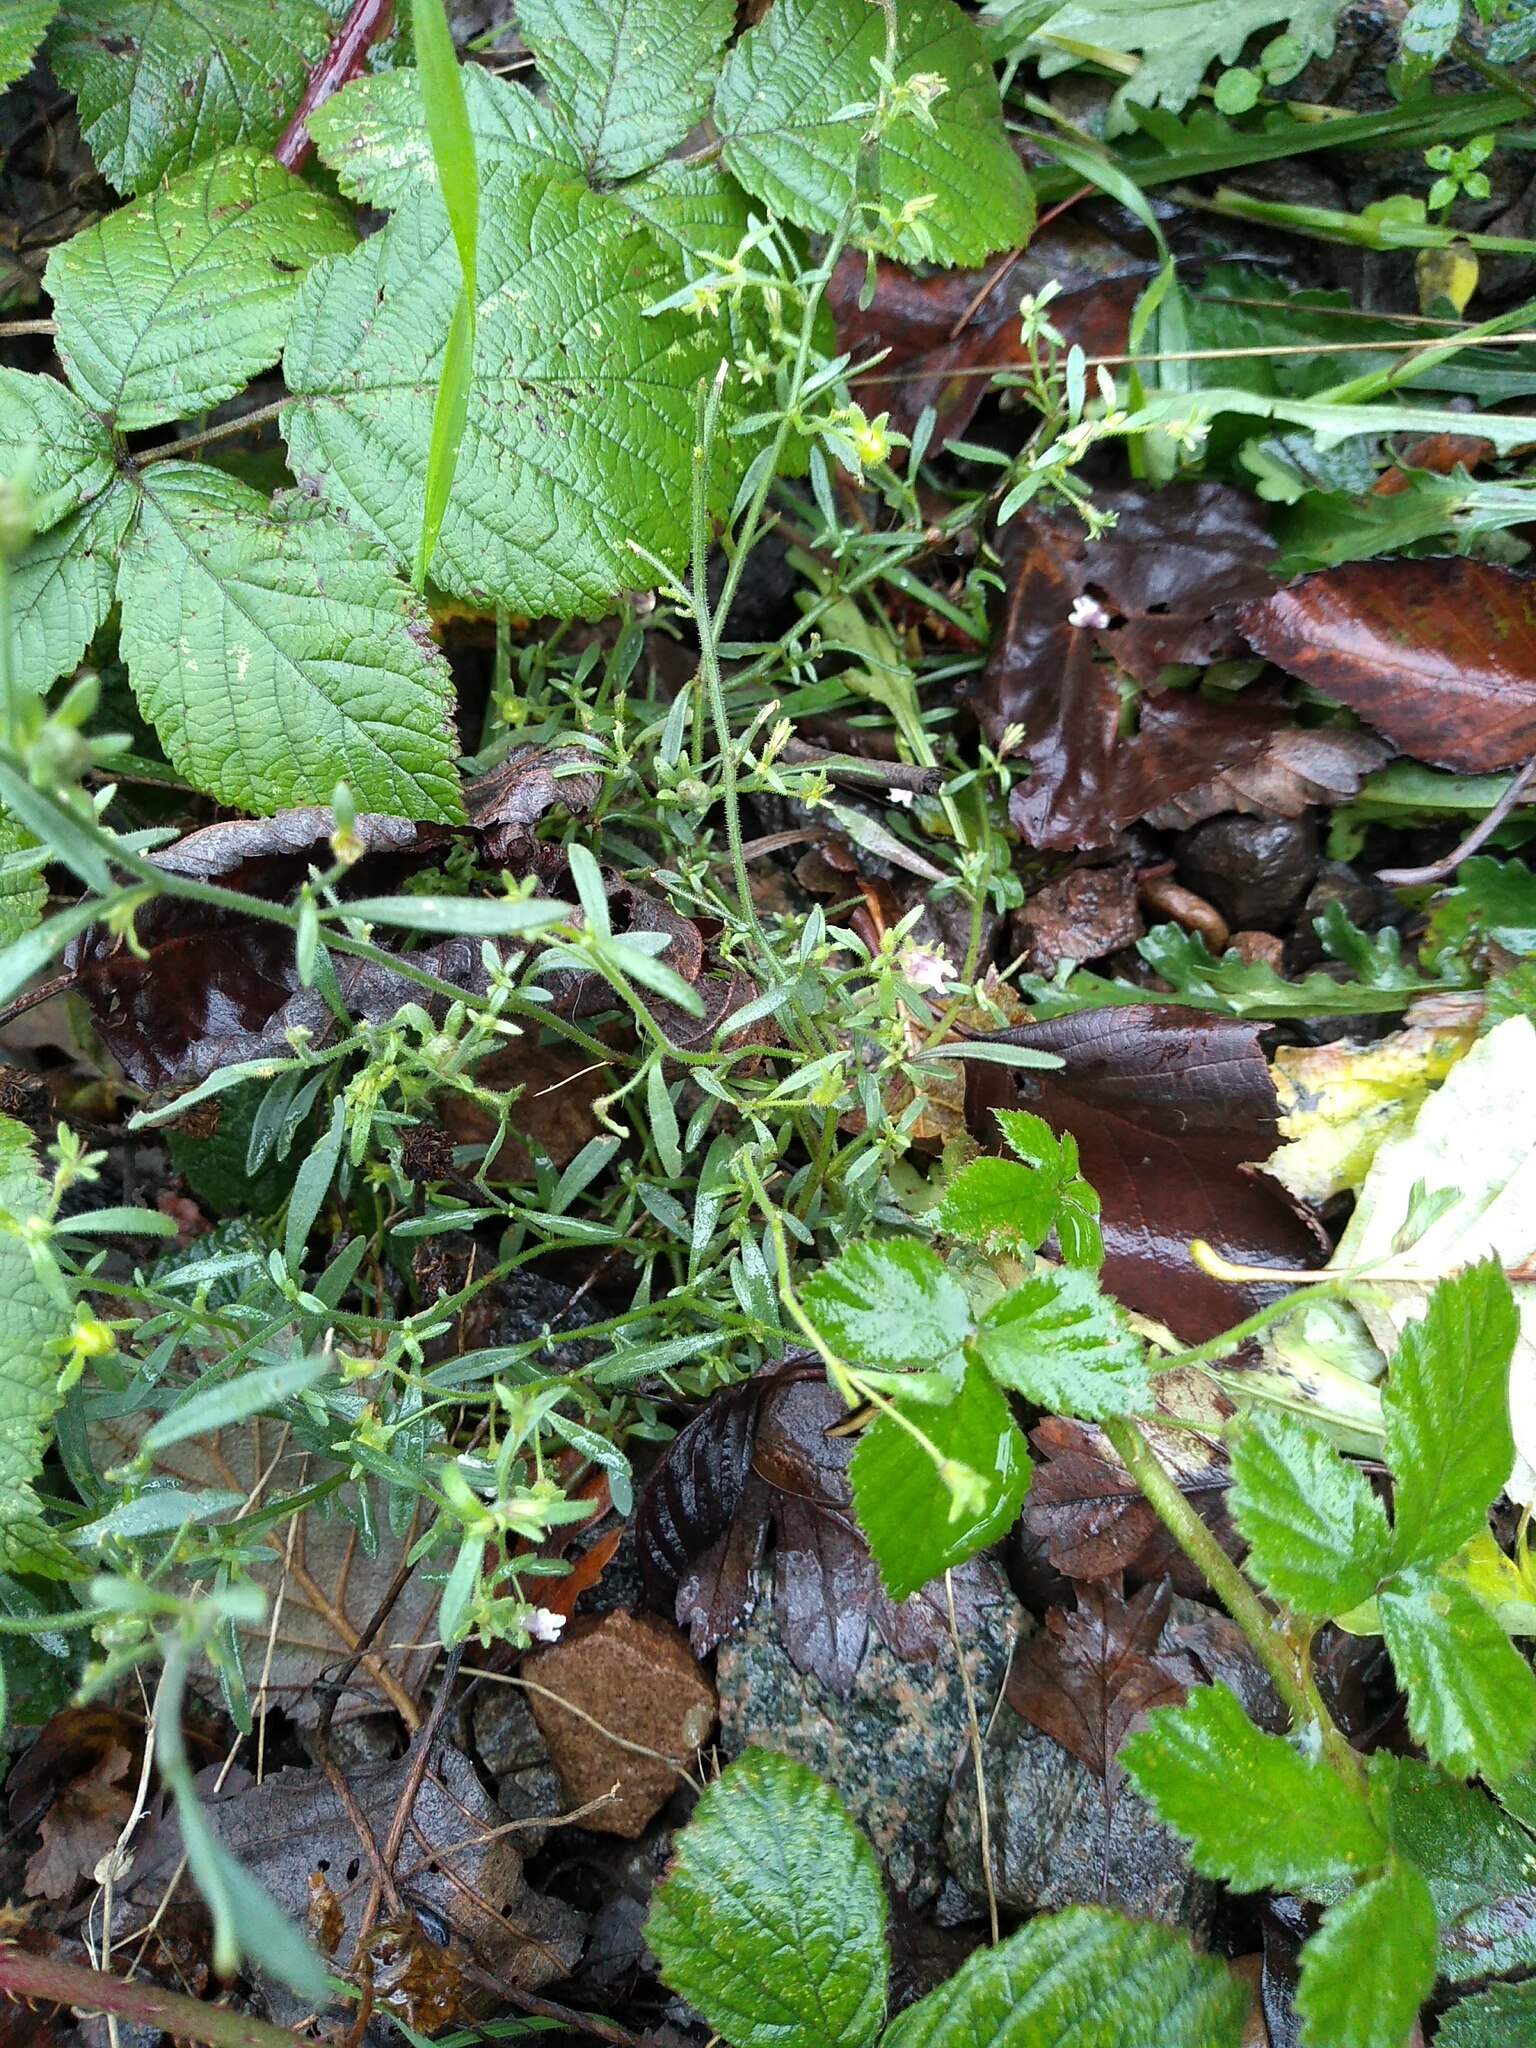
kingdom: Plantae
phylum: Tracheophyta
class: Magnoliopsida
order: Lamiales
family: Plantaginaceae
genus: Chaenorhinum
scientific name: Chaenorhinum minus
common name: Dwarf snapdragon
